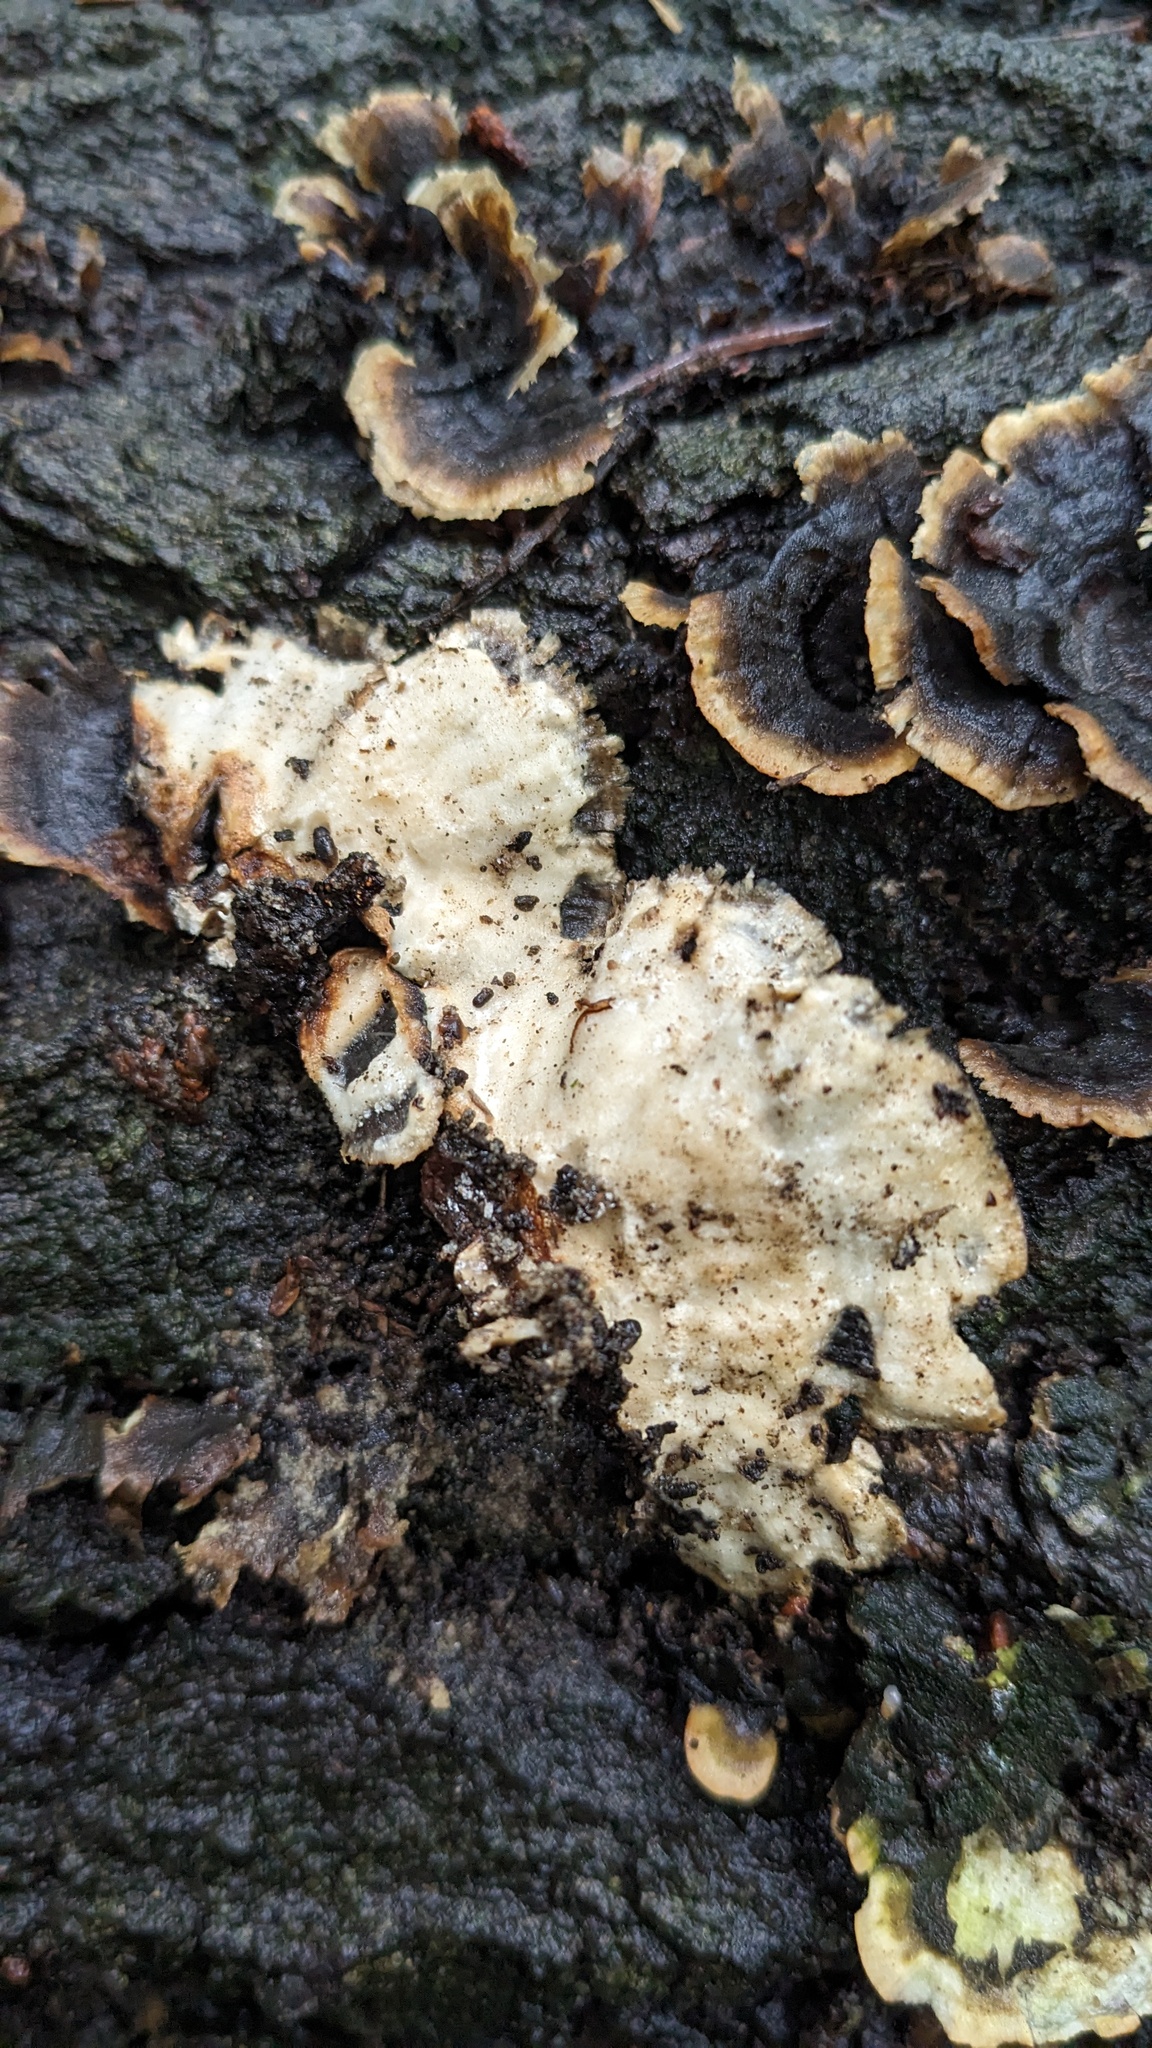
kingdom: Fungi
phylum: Basidiomycota
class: Agaricomycetes
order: Polyporales
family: Polyporaceae
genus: Trametes
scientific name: Trametes versicolor
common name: Turkeytail
